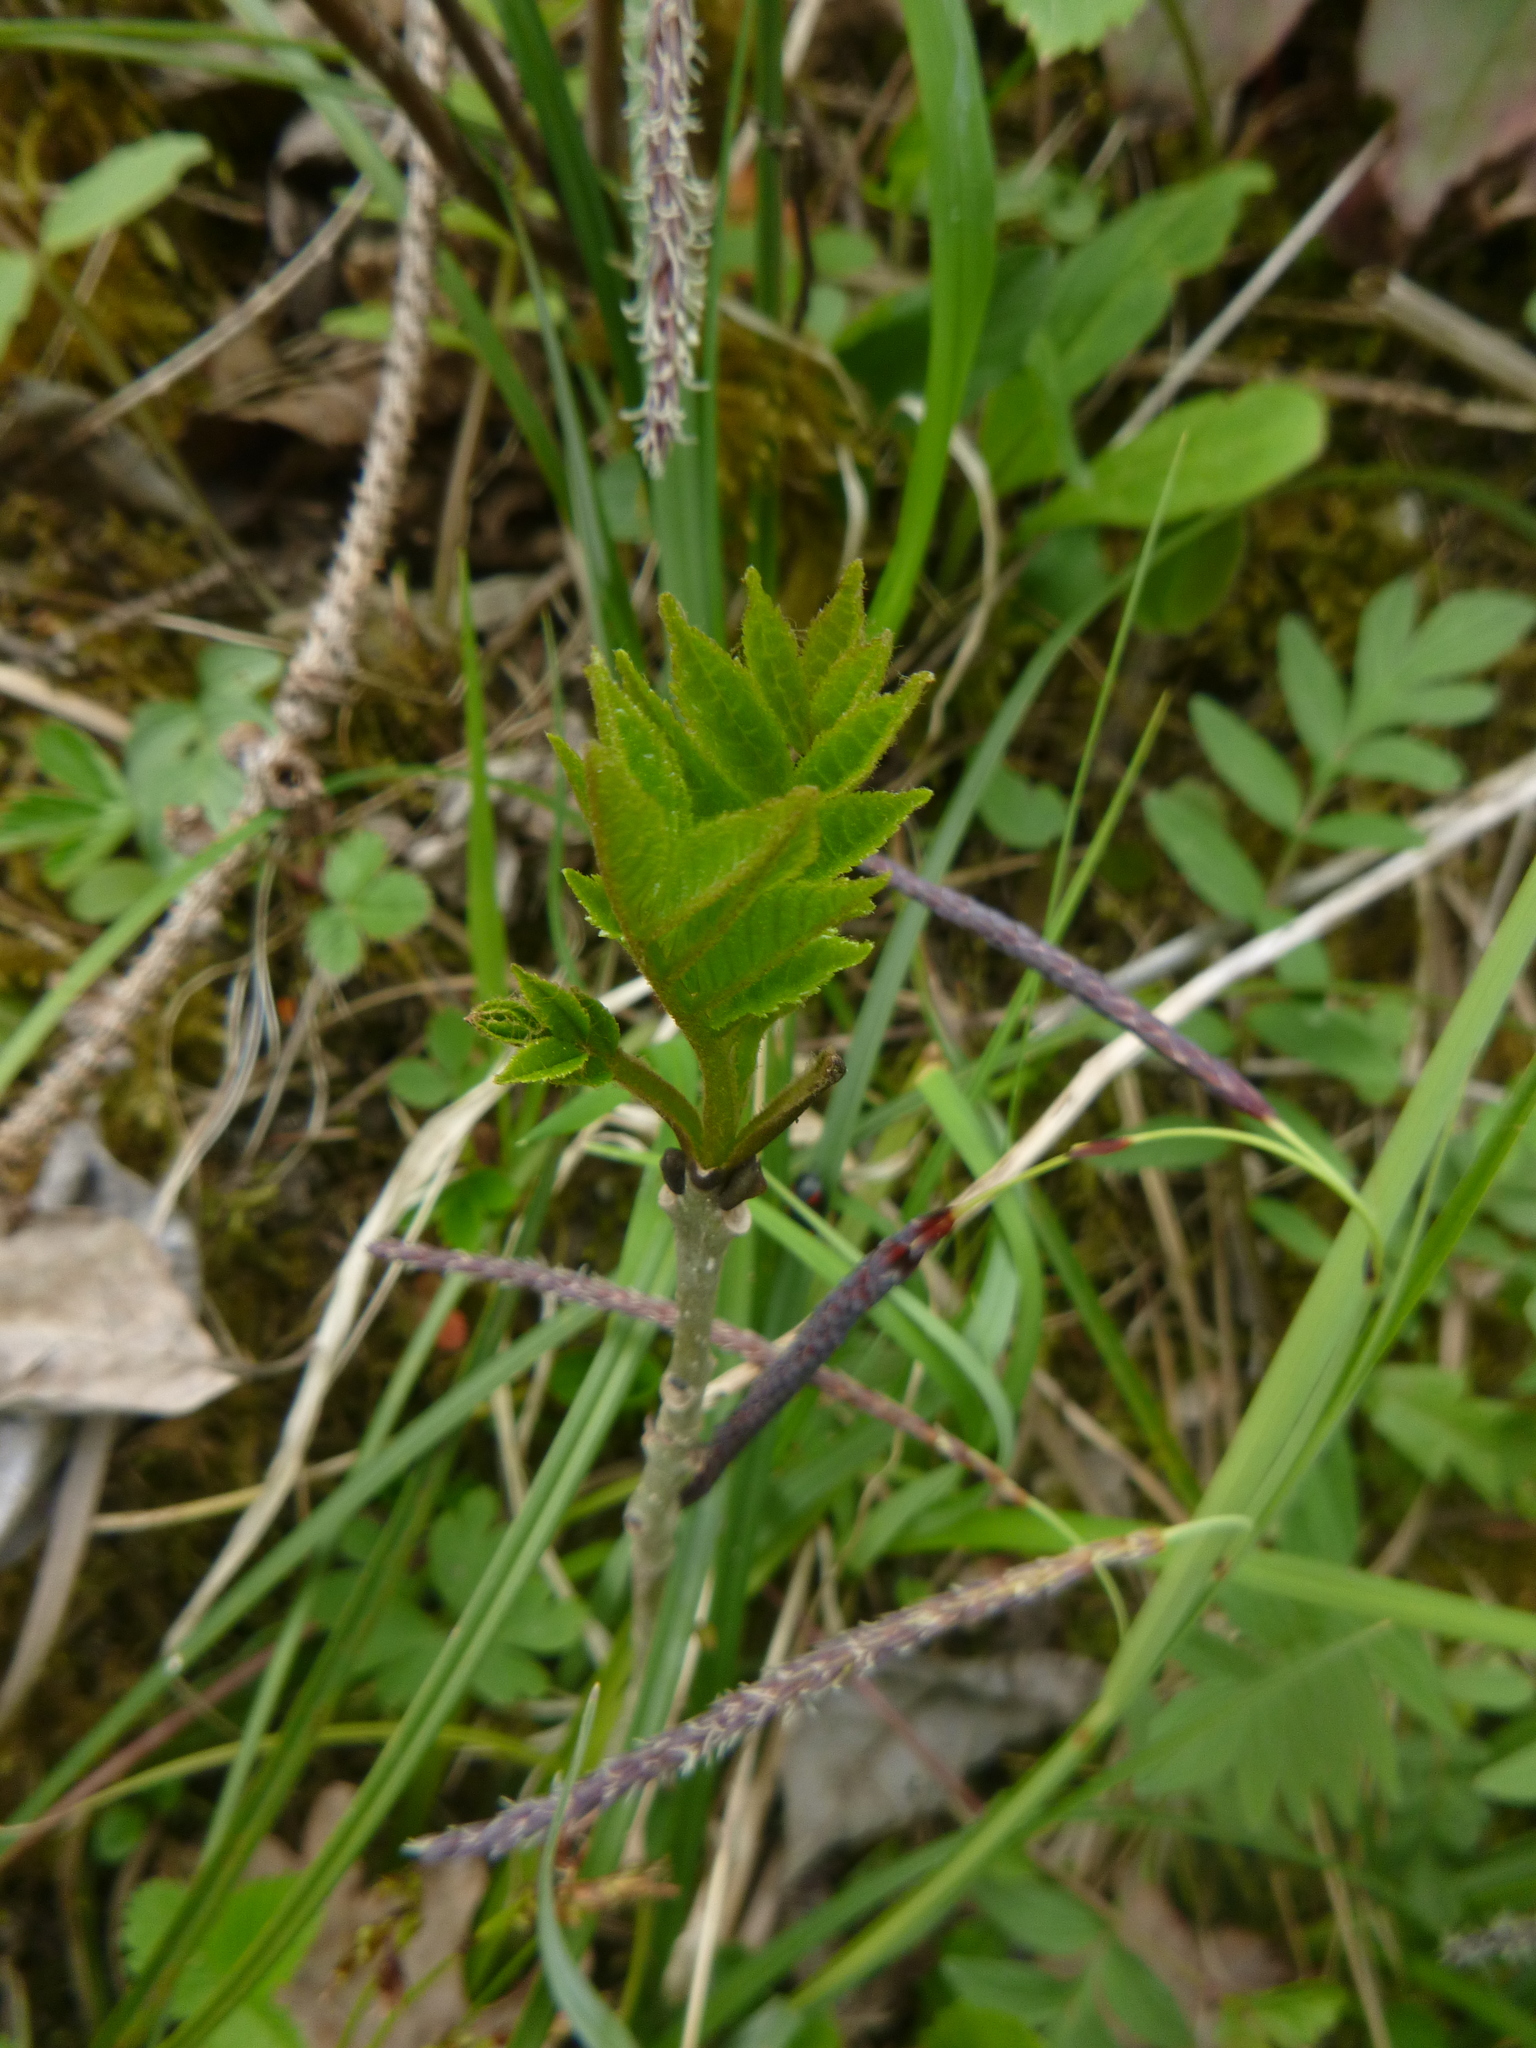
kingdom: Plantae
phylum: Tracheophyta
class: Magnoliopsida
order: Lamiales
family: Oleaceae
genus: Fraxinus
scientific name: Fraxinus excelsior
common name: European ash
